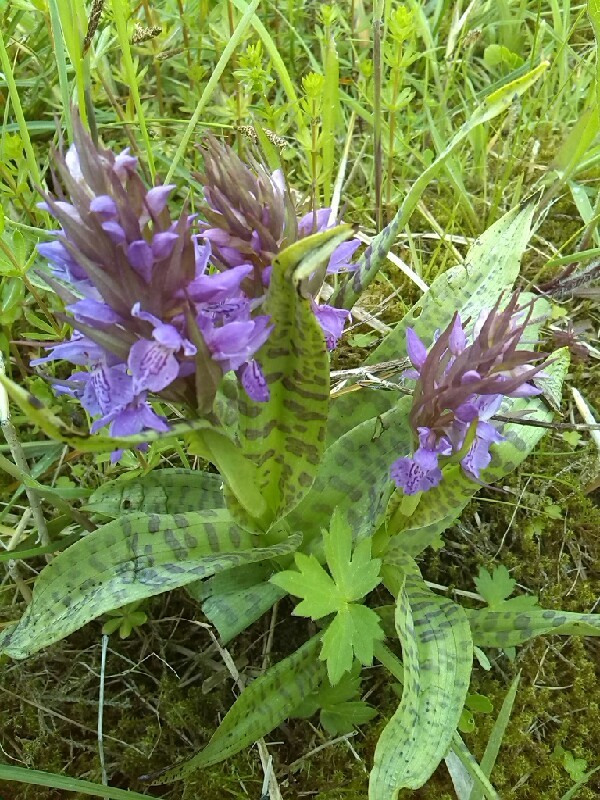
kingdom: Plantae
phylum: Tracheophyta
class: Liliopsida
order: Asparagales
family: Orchidaceae
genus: Dactylorhiza
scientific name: Dactylorhiza majalis
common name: Marsh orchid
